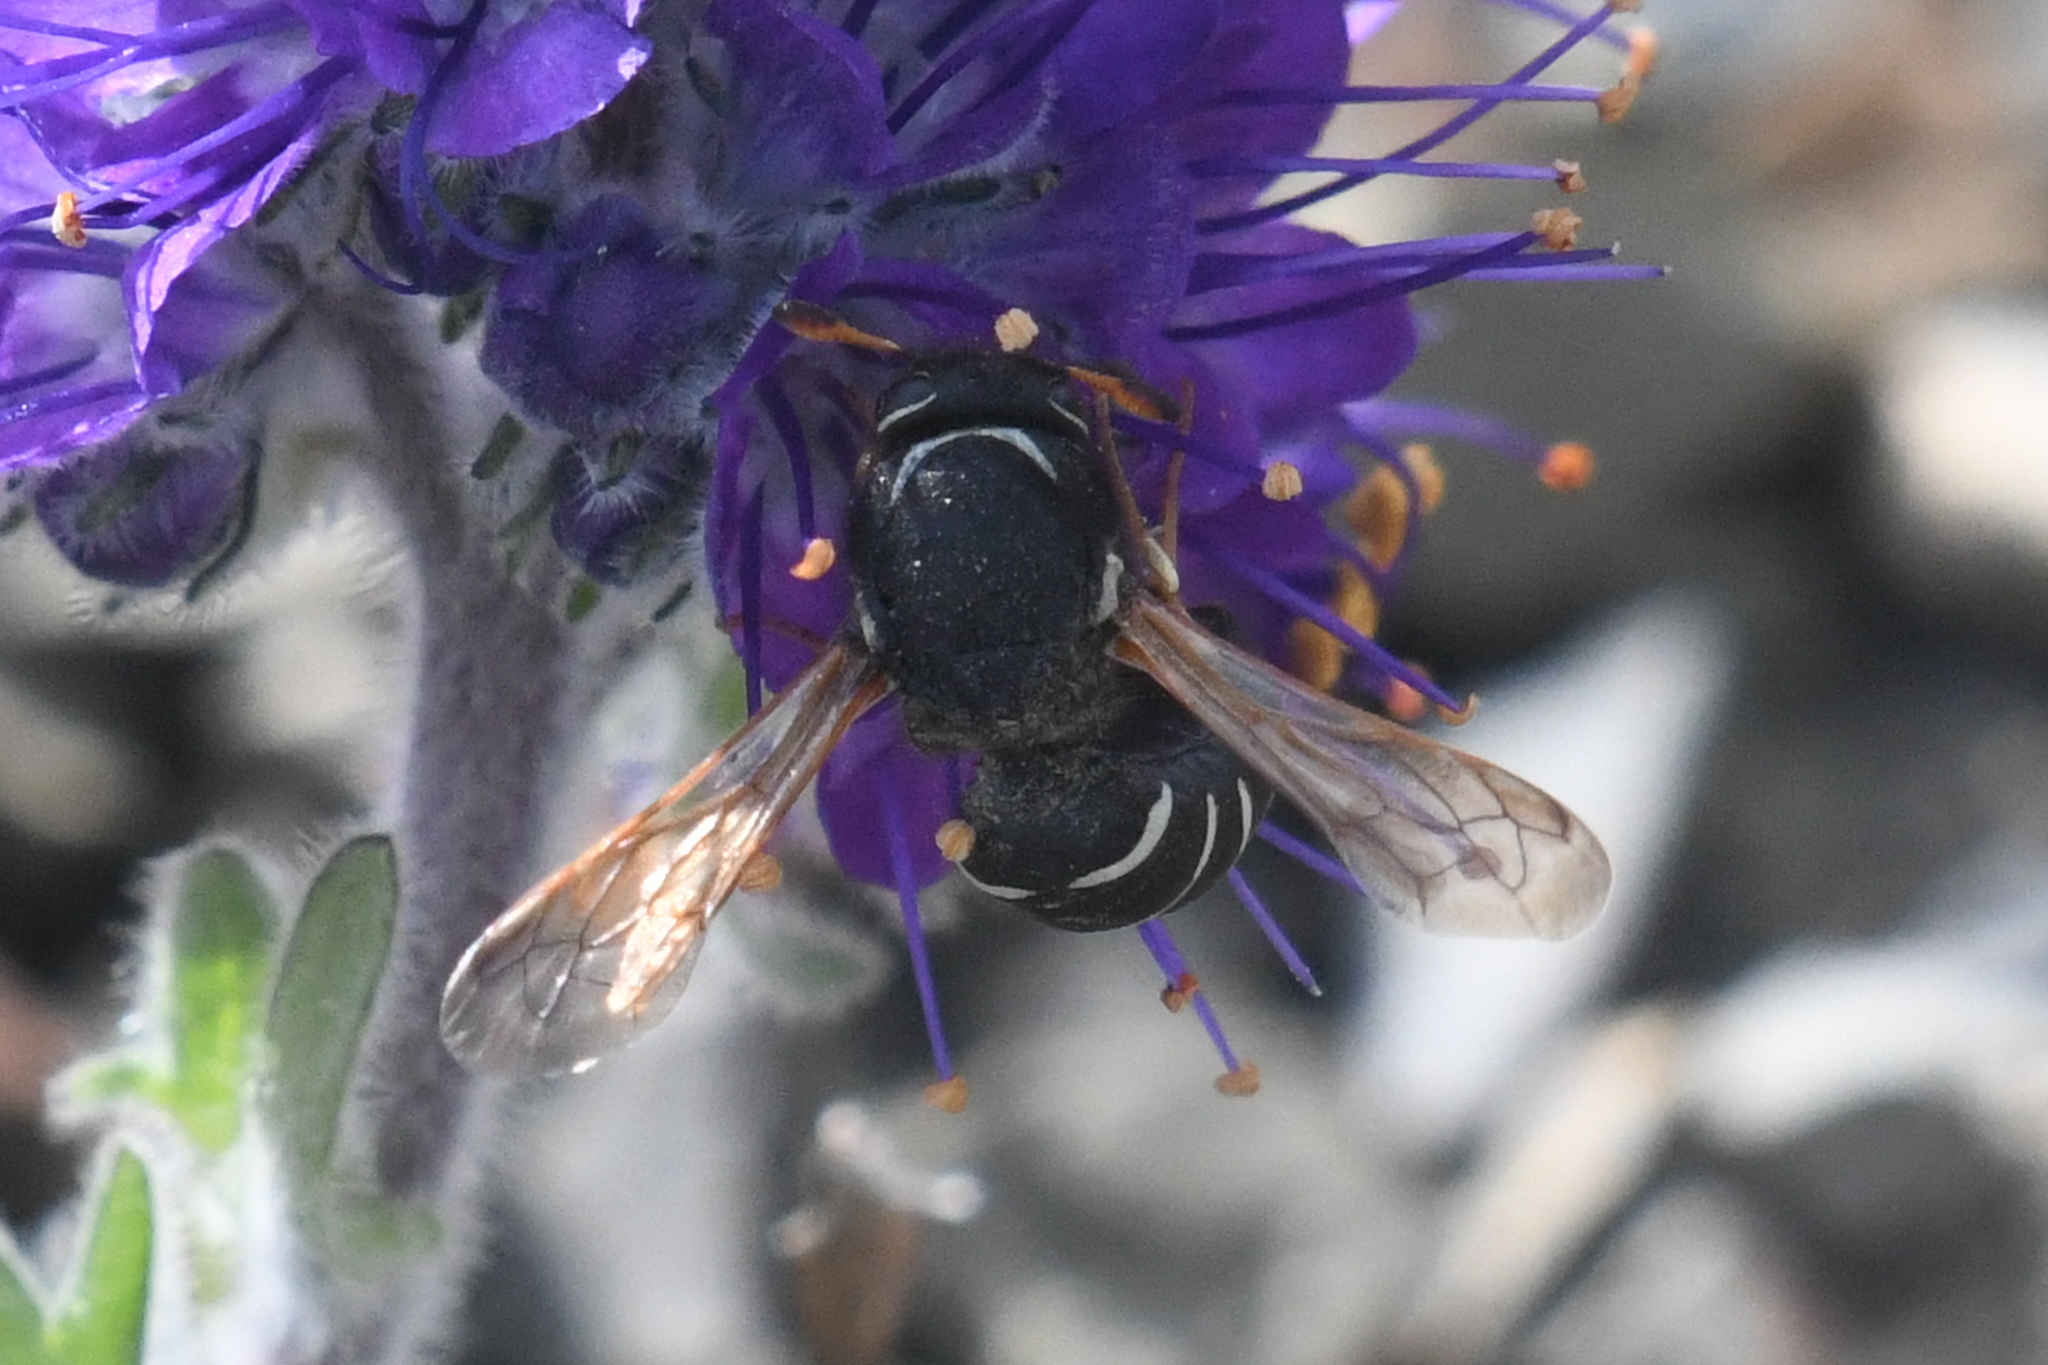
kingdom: Animalia
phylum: Arthropoda
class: Insecta
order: Hymenoptera
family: Masaridae
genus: Pseudomasaris
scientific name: Pseudomasaris marginalis
